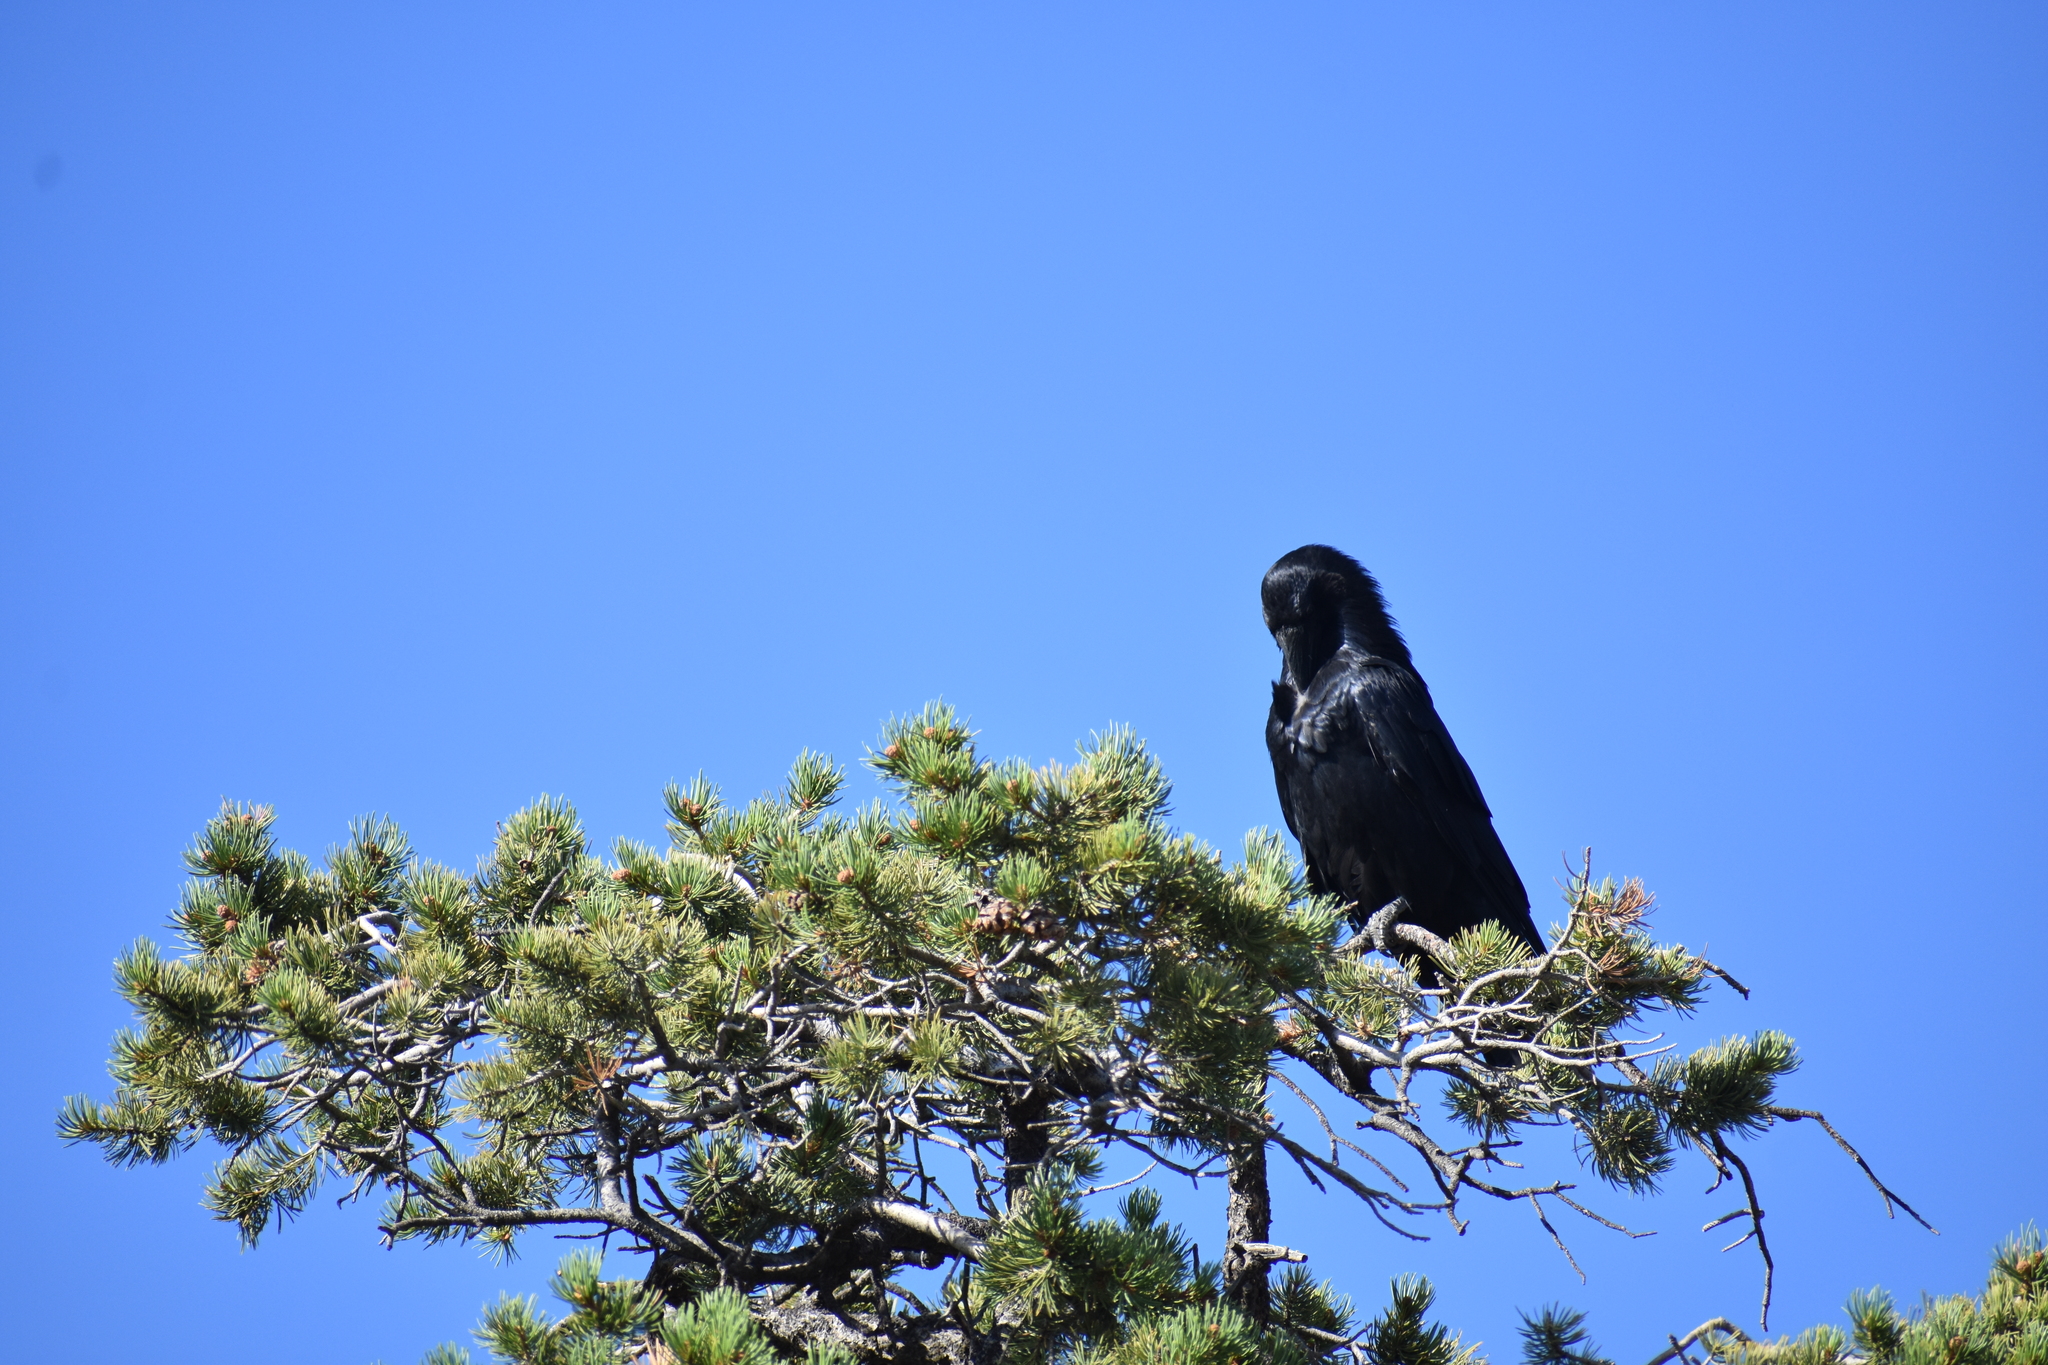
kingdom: Animalia
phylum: Chordata
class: Aves
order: Passeriformes
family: Corvidae
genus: Corvus
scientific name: Corvus corax
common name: Common raven
